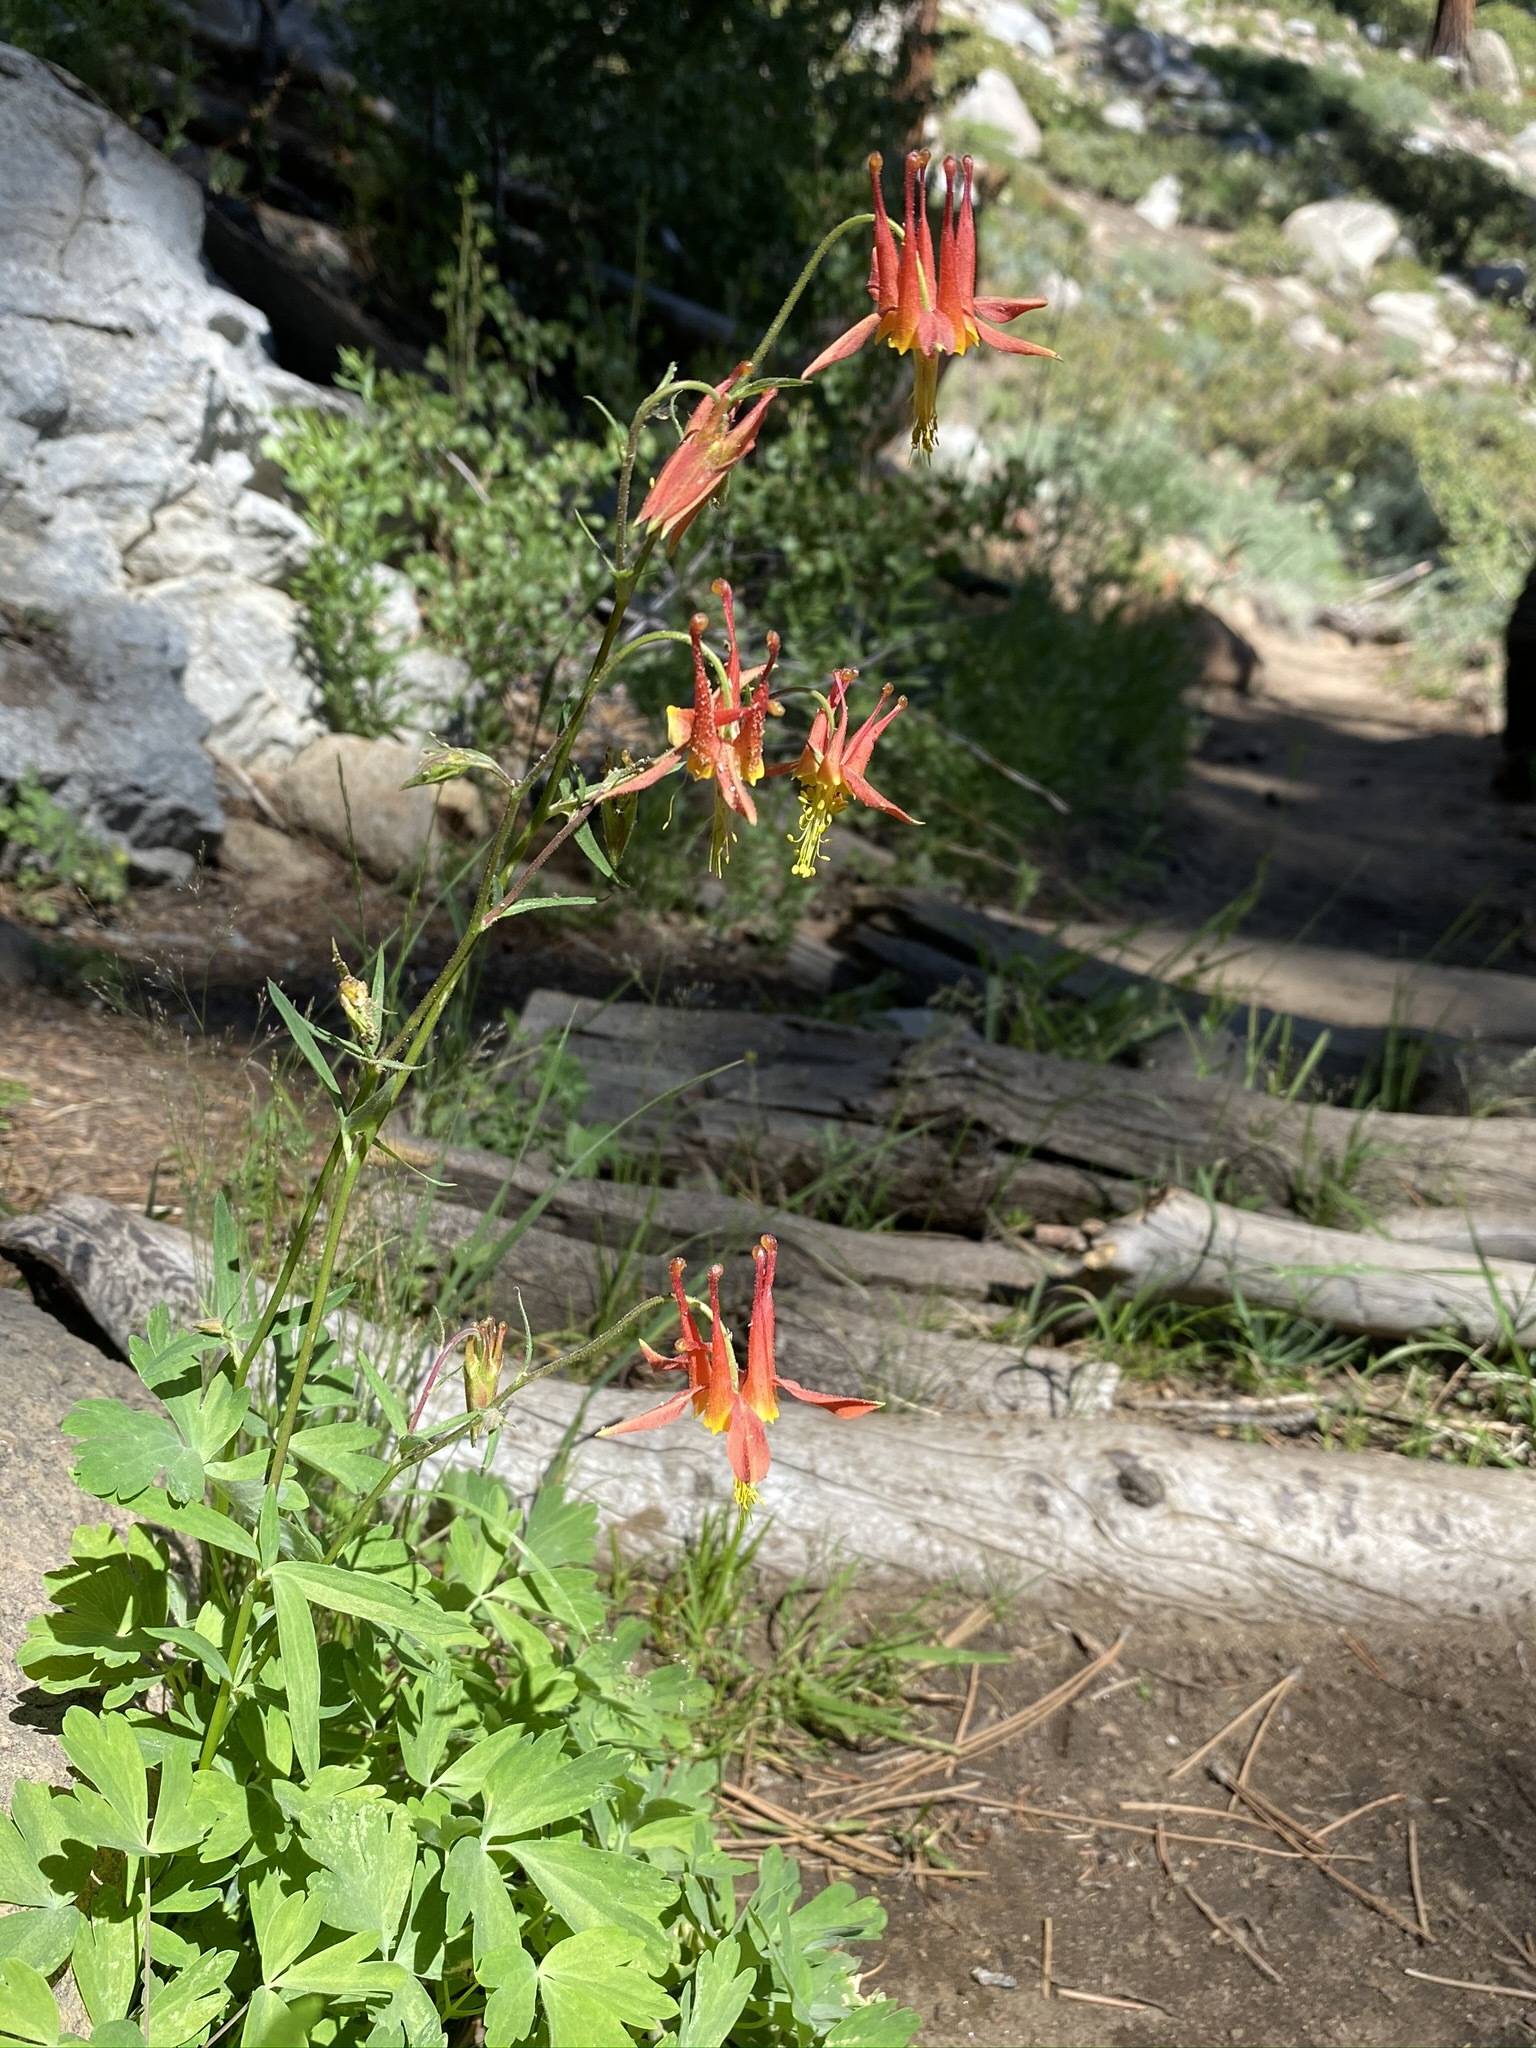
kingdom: Plantae
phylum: Tracheophyta
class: Magnoliopsida
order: Ranunculales
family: Ranunculaceae
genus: Aquilegia
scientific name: Aquilegia formosa
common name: Sitka columbine
